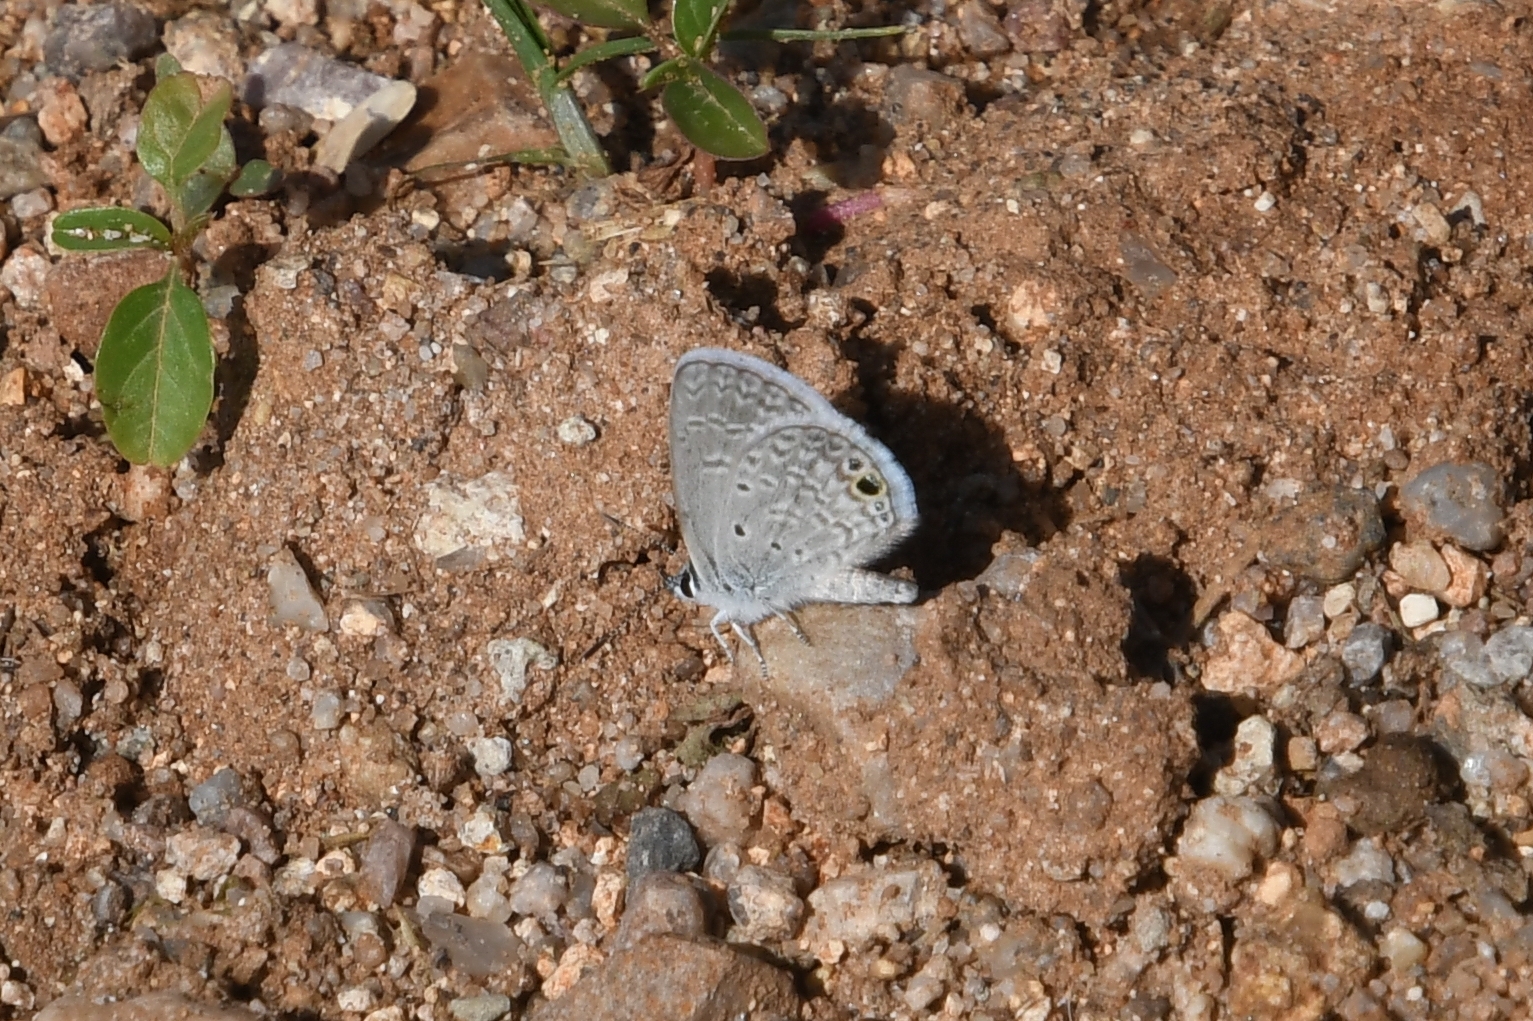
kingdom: Animalia
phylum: Arthropoda
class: Insecta
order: Lepidoptera
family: Lycaenidae
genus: Hemiargus
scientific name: Hemiargus ceraunus
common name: Ceraunus blue
